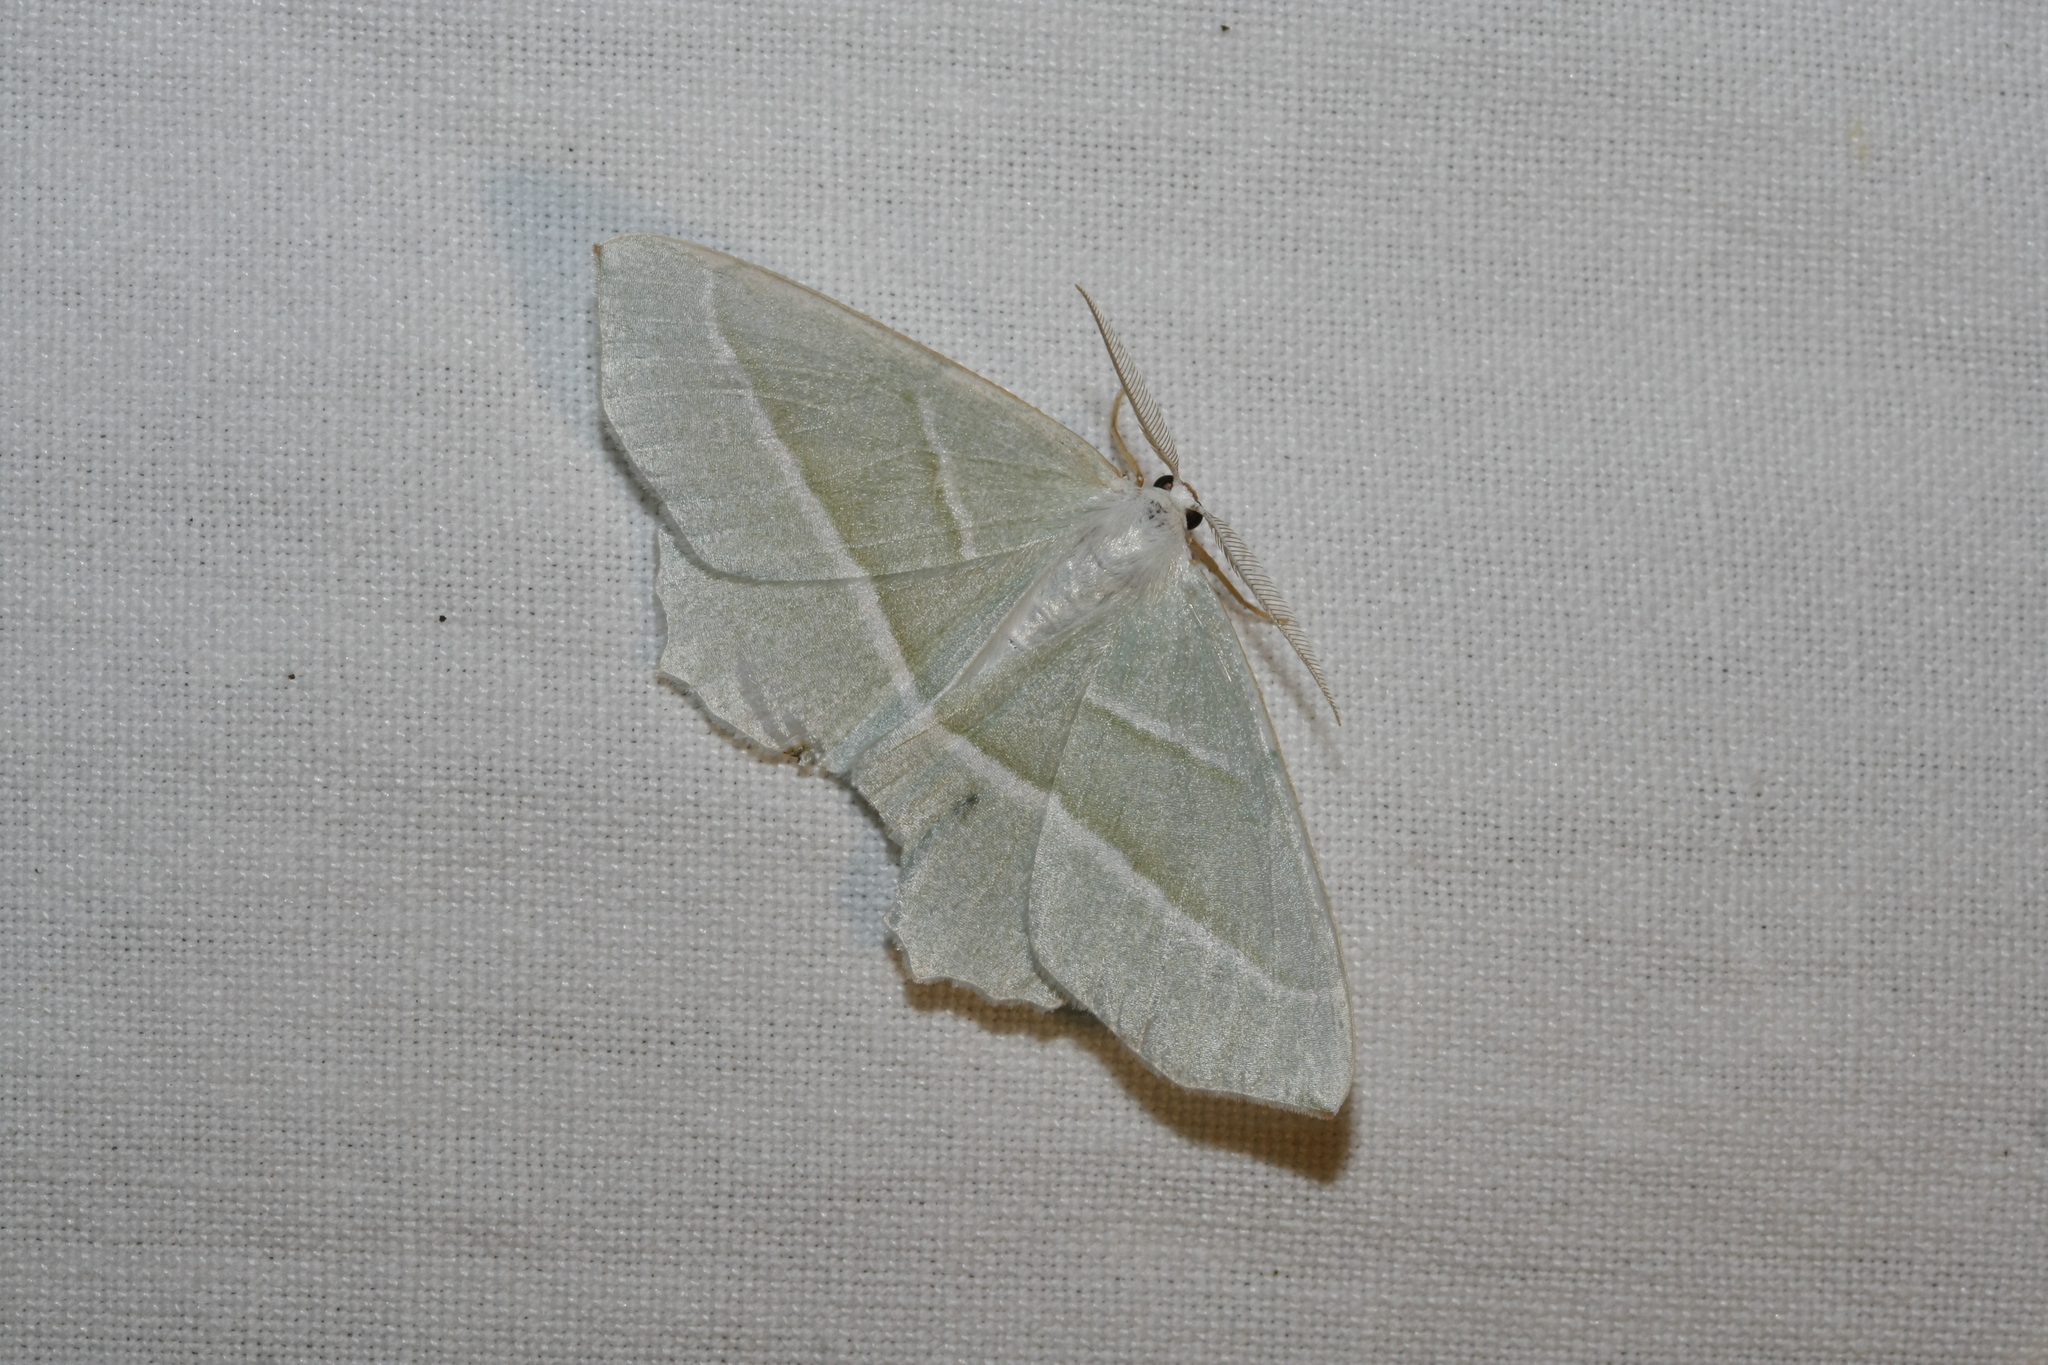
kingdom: Animalia
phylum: Arthropoda
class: Insecta
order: Lepidoptera
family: Geometridae
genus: Campaea
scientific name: Campaea margaritaria
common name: Light emerald
